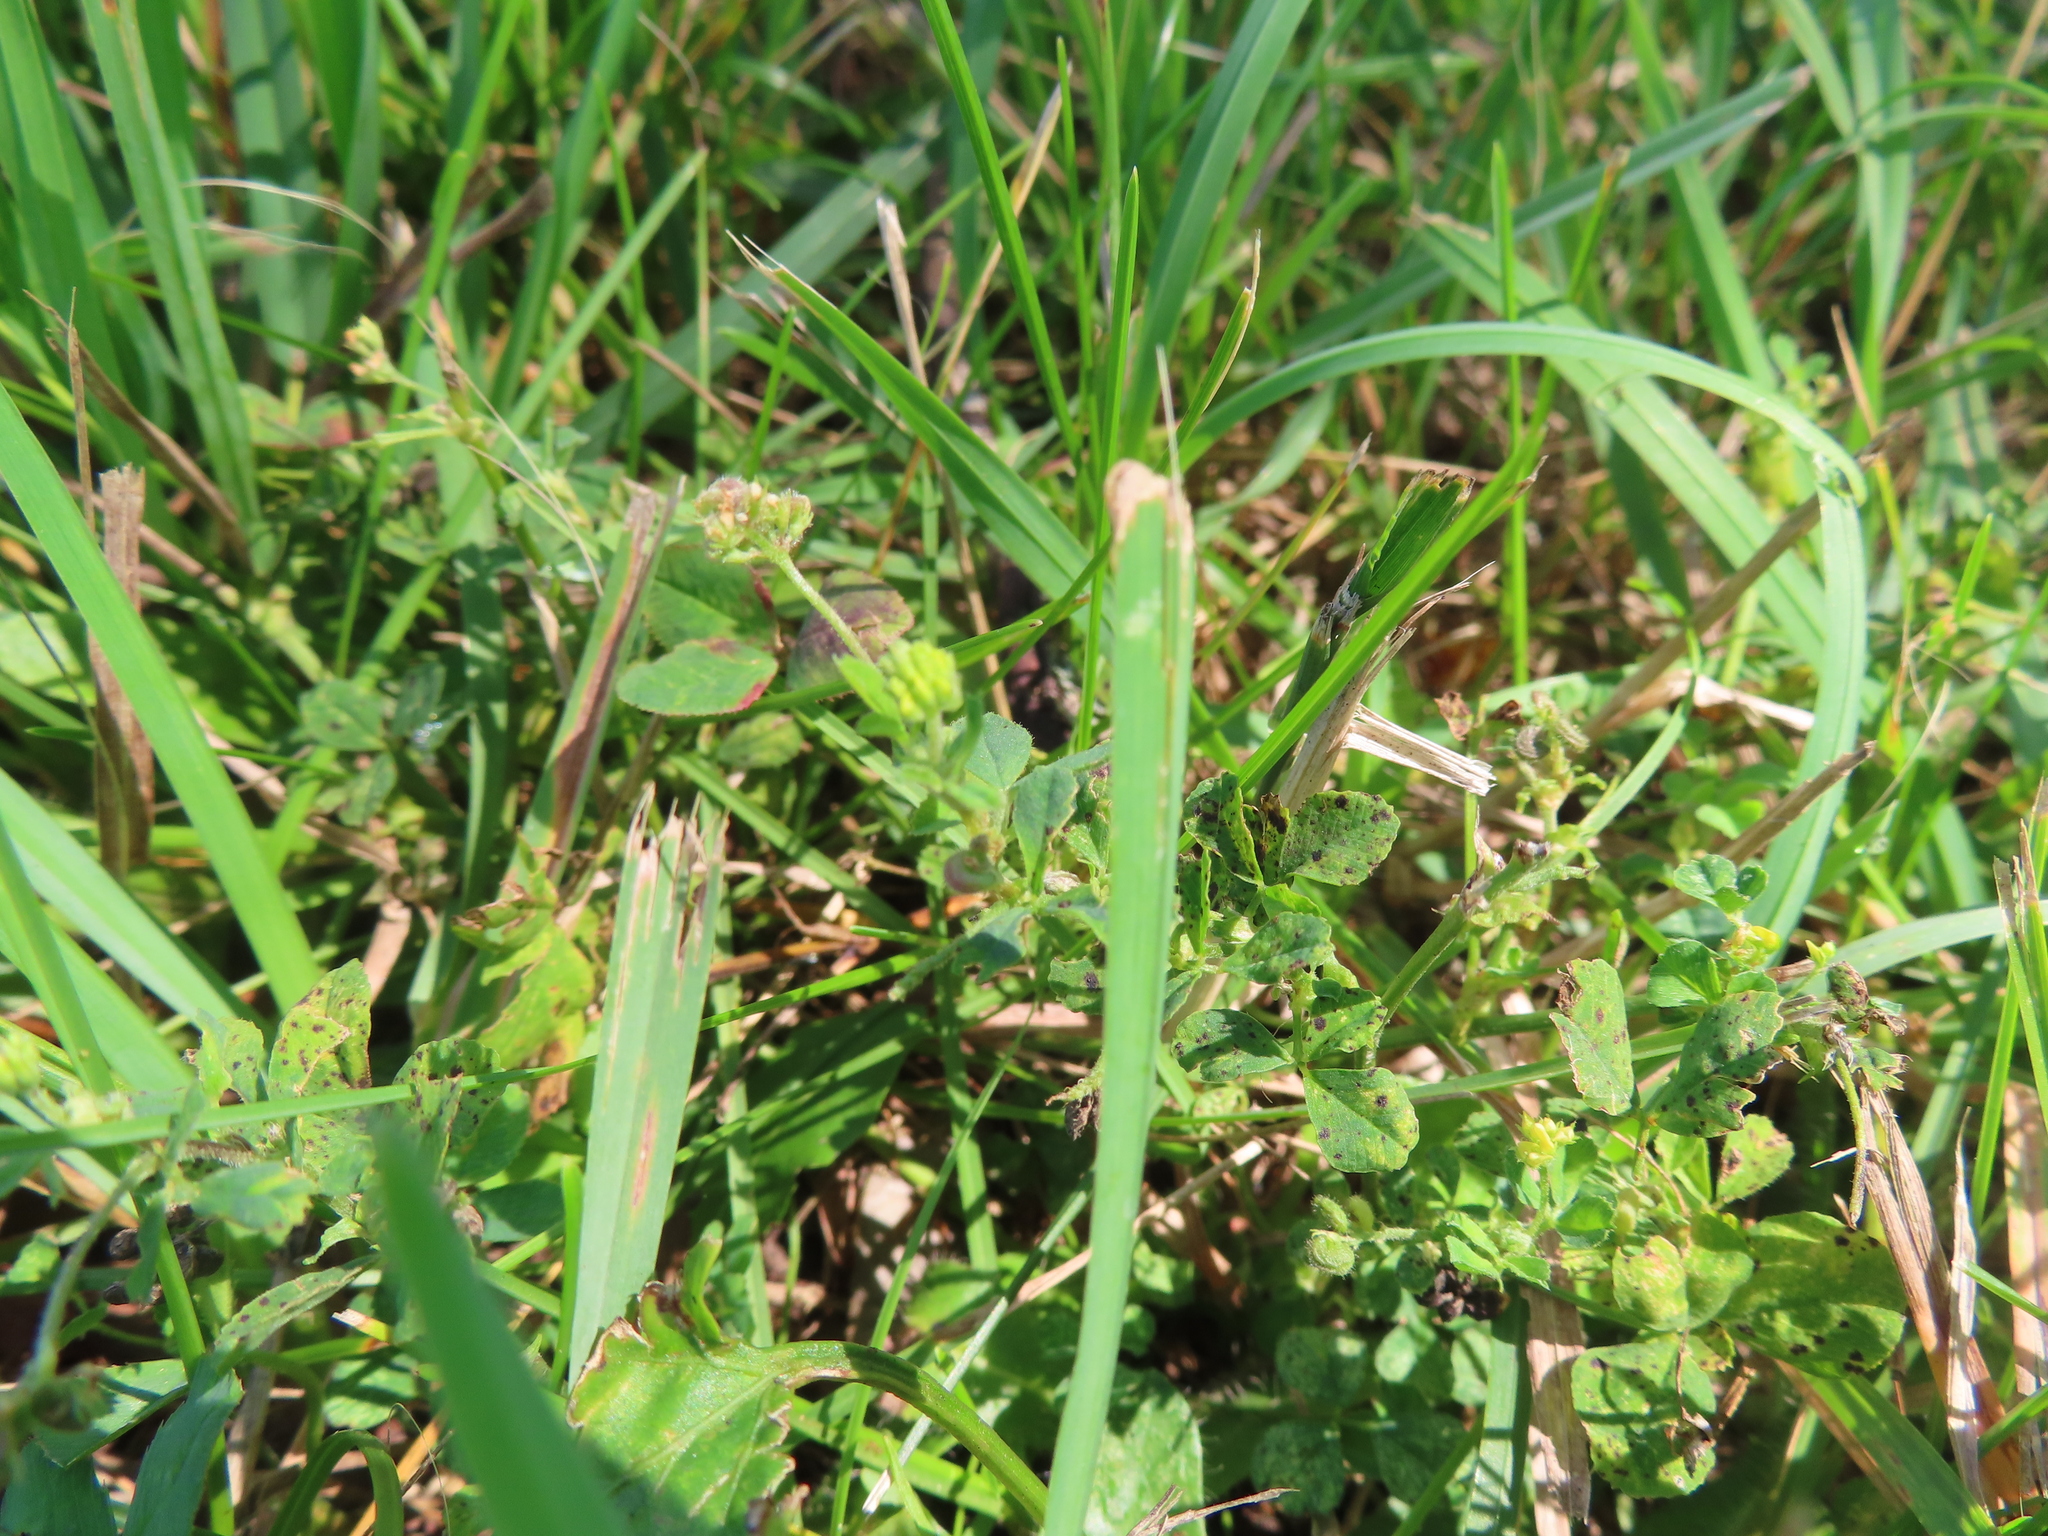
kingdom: Plantae
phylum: Tracheophyta
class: Magnoliopsida
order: Fabales
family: Fabaceae
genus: Medicago
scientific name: Medicago lupulina
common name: Black medick
